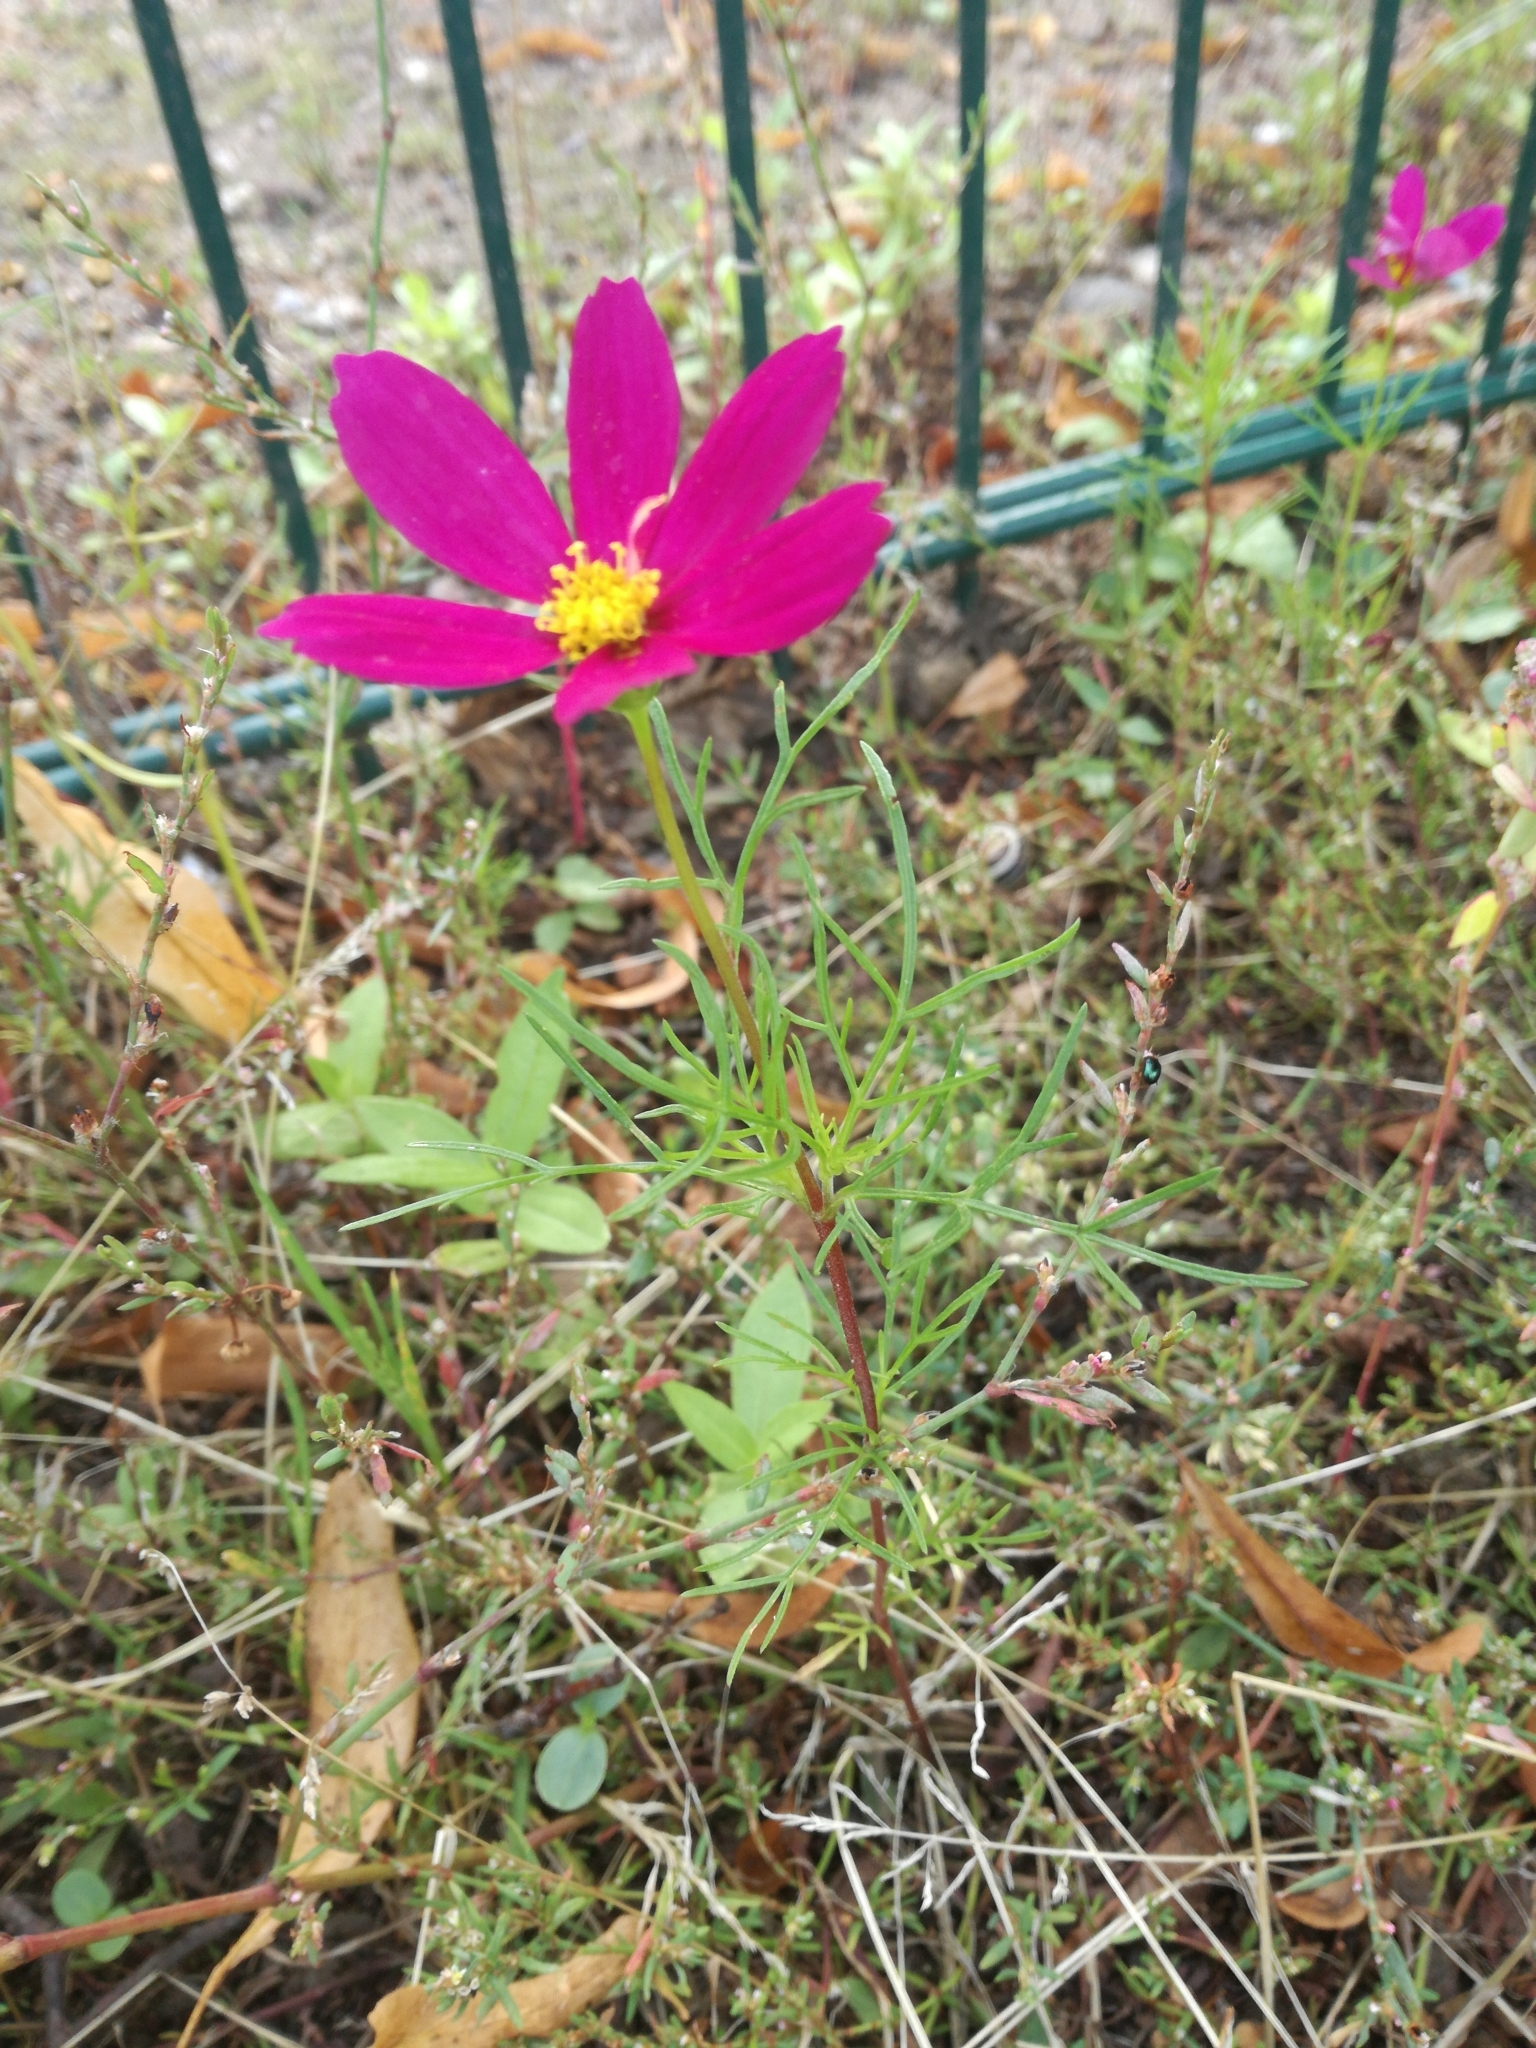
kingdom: Plantae
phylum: Tracheophyta
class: Magnoliopsida
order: Asterales
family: Asteraceae
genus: Cosmos
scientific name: Cosmos bipinnatus
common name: Garden cosmos
